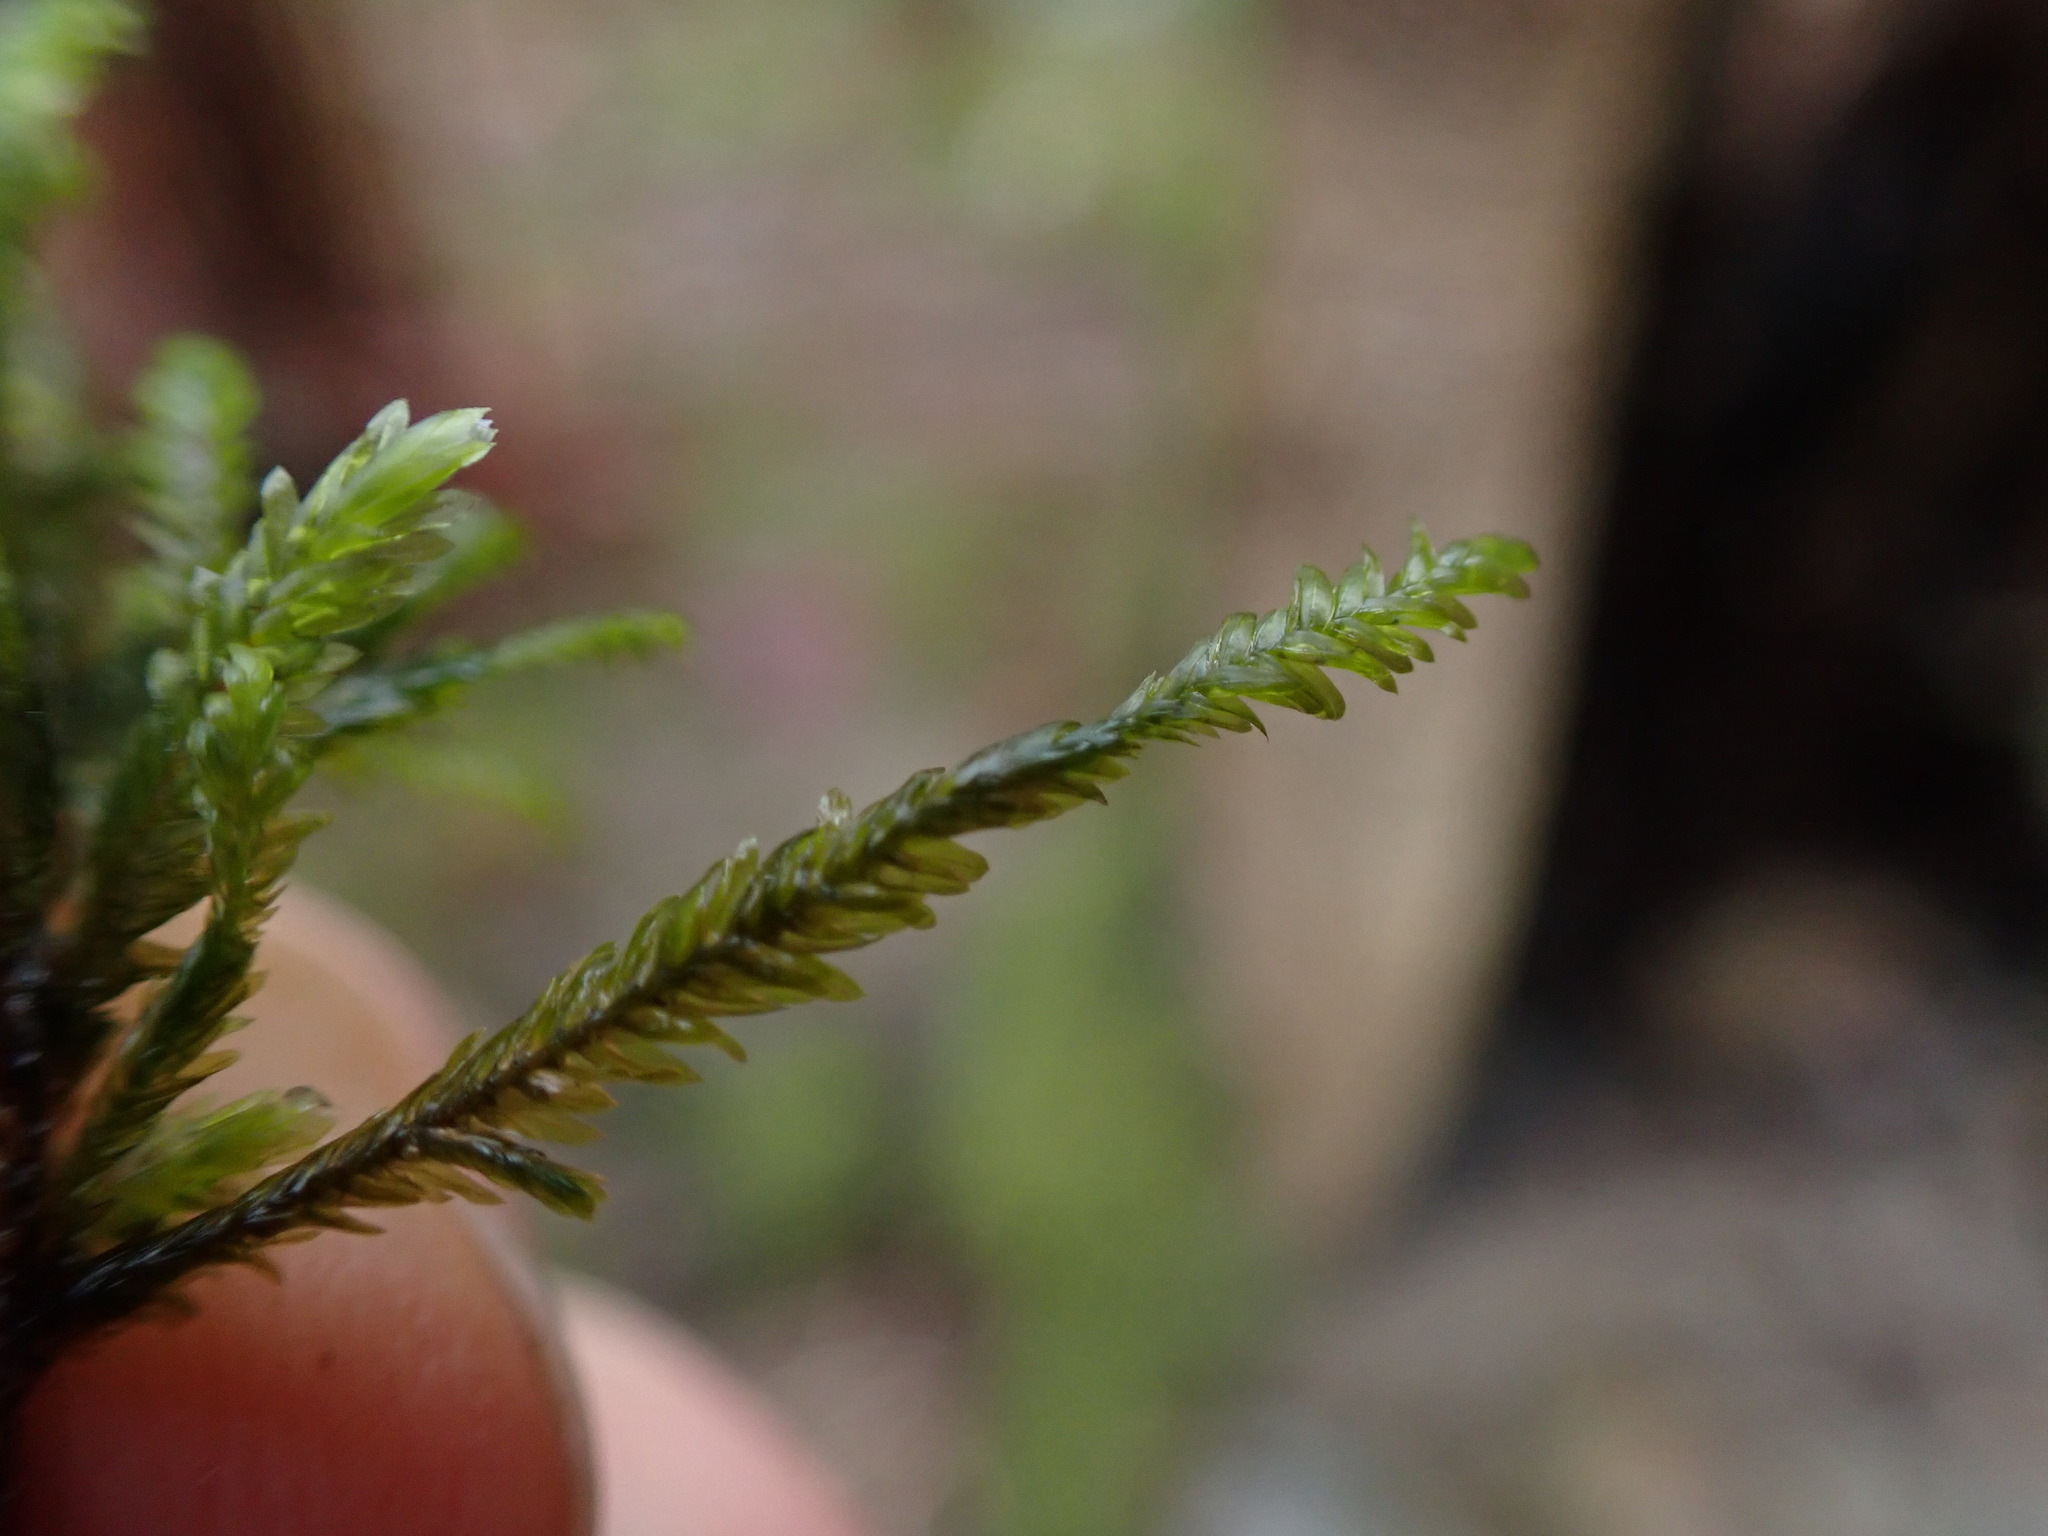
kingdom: Plantae
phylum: Bryophyta
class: Bryopsida
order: Hypnales
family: Neckeraceae
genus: Dannorrisia
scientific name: Dannorrisia bigelovii
